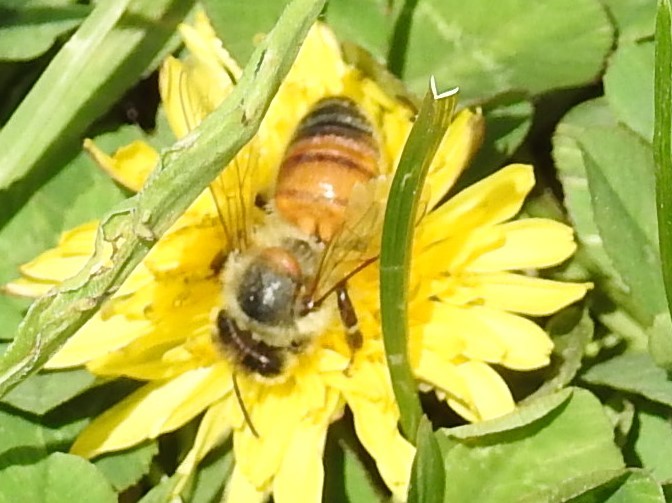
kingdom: Animalia
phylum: Arthropoda
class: Insecta
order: Hymenoptera
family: Apidae
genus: Apis
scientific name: Apis mellifera
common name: Honey bee
